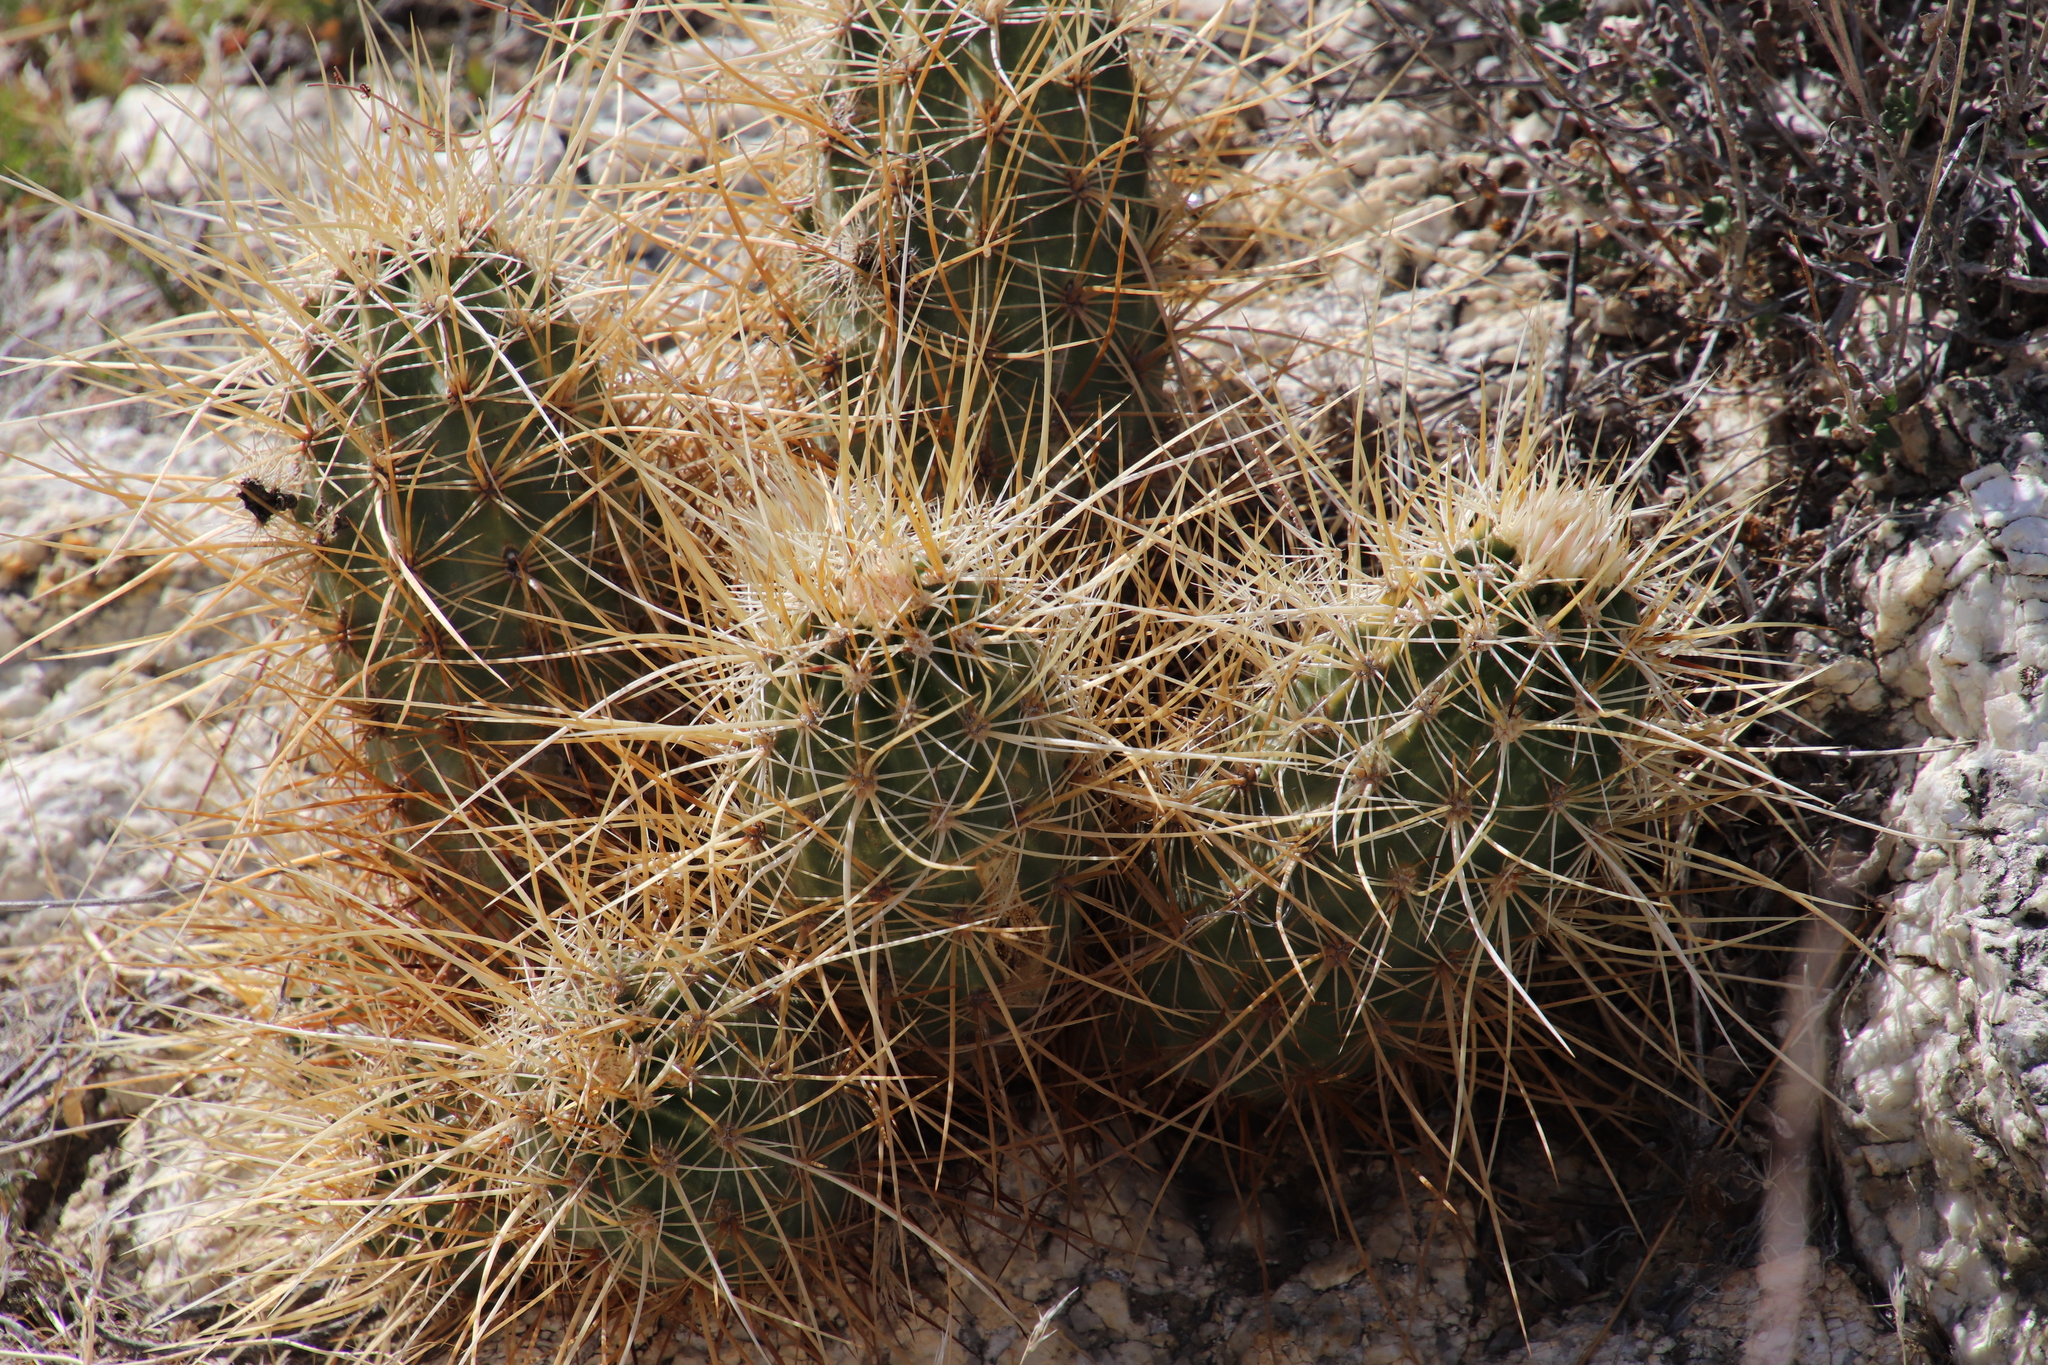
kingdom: Plantae
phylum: Tracheophyta
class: Magnoliopsida
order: Caryophyllales
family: Cactaceae
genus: Echinocereus
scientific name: Echinocereus engelmannii
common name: Engelmann's hedgehog cactus
